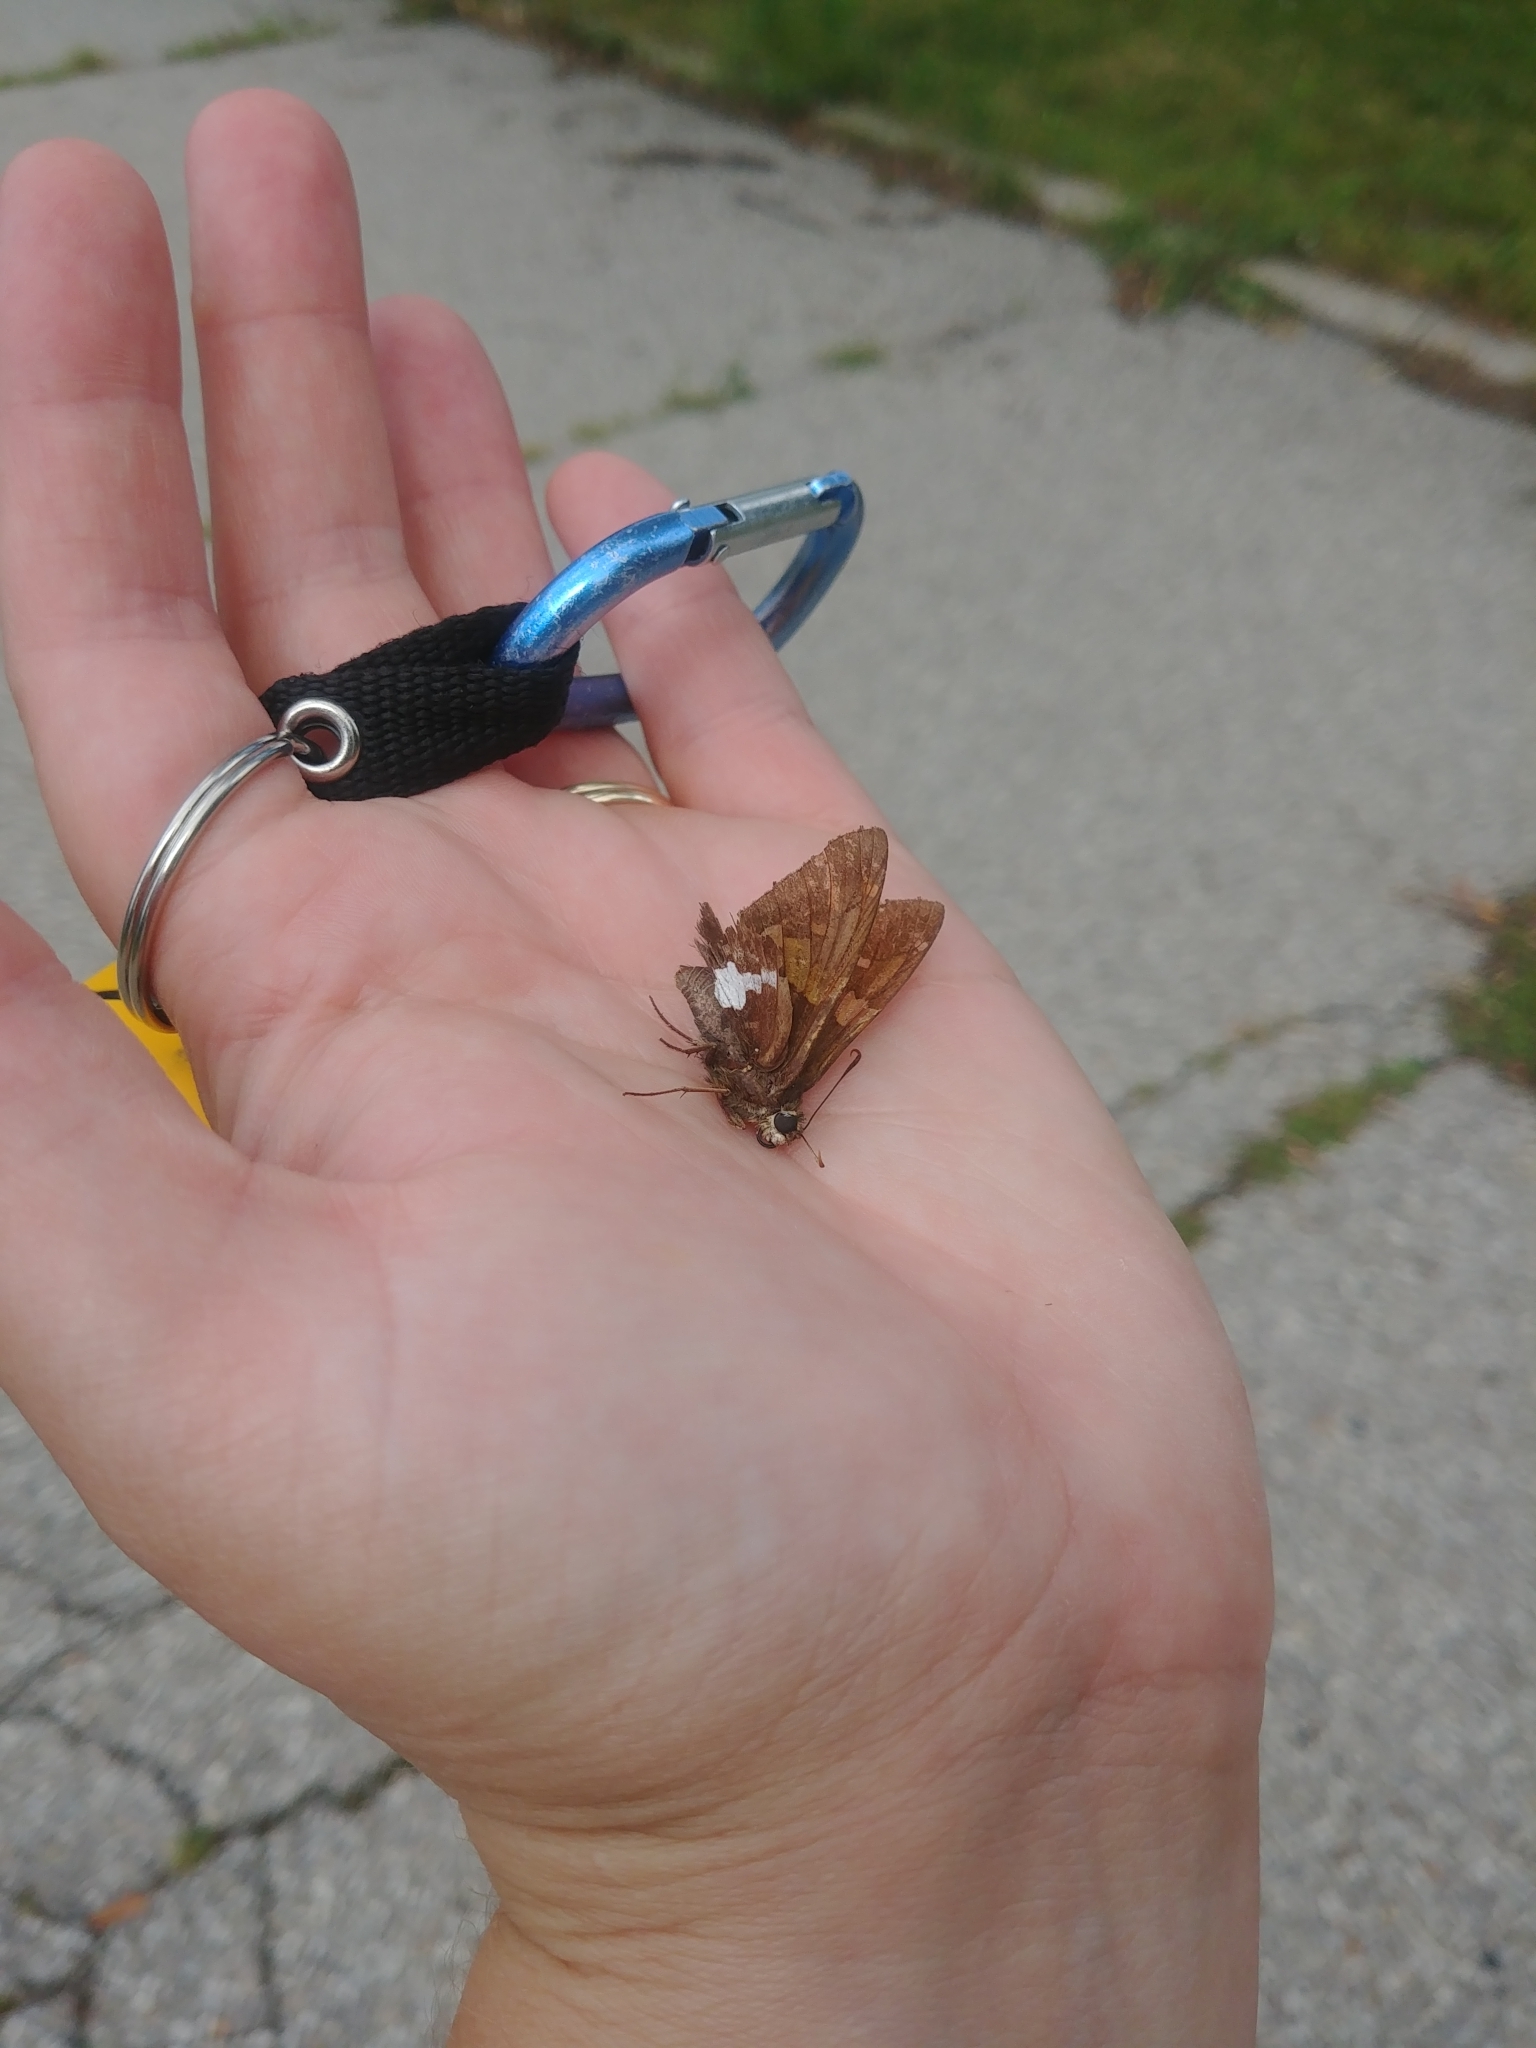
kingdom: Animalia
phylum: Arthropoda
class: Insecta
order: Lepidoptera
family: Hesperiidae
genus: Epargyreus
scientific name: Epargyreus clarus
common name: Silver-spotted skipper
